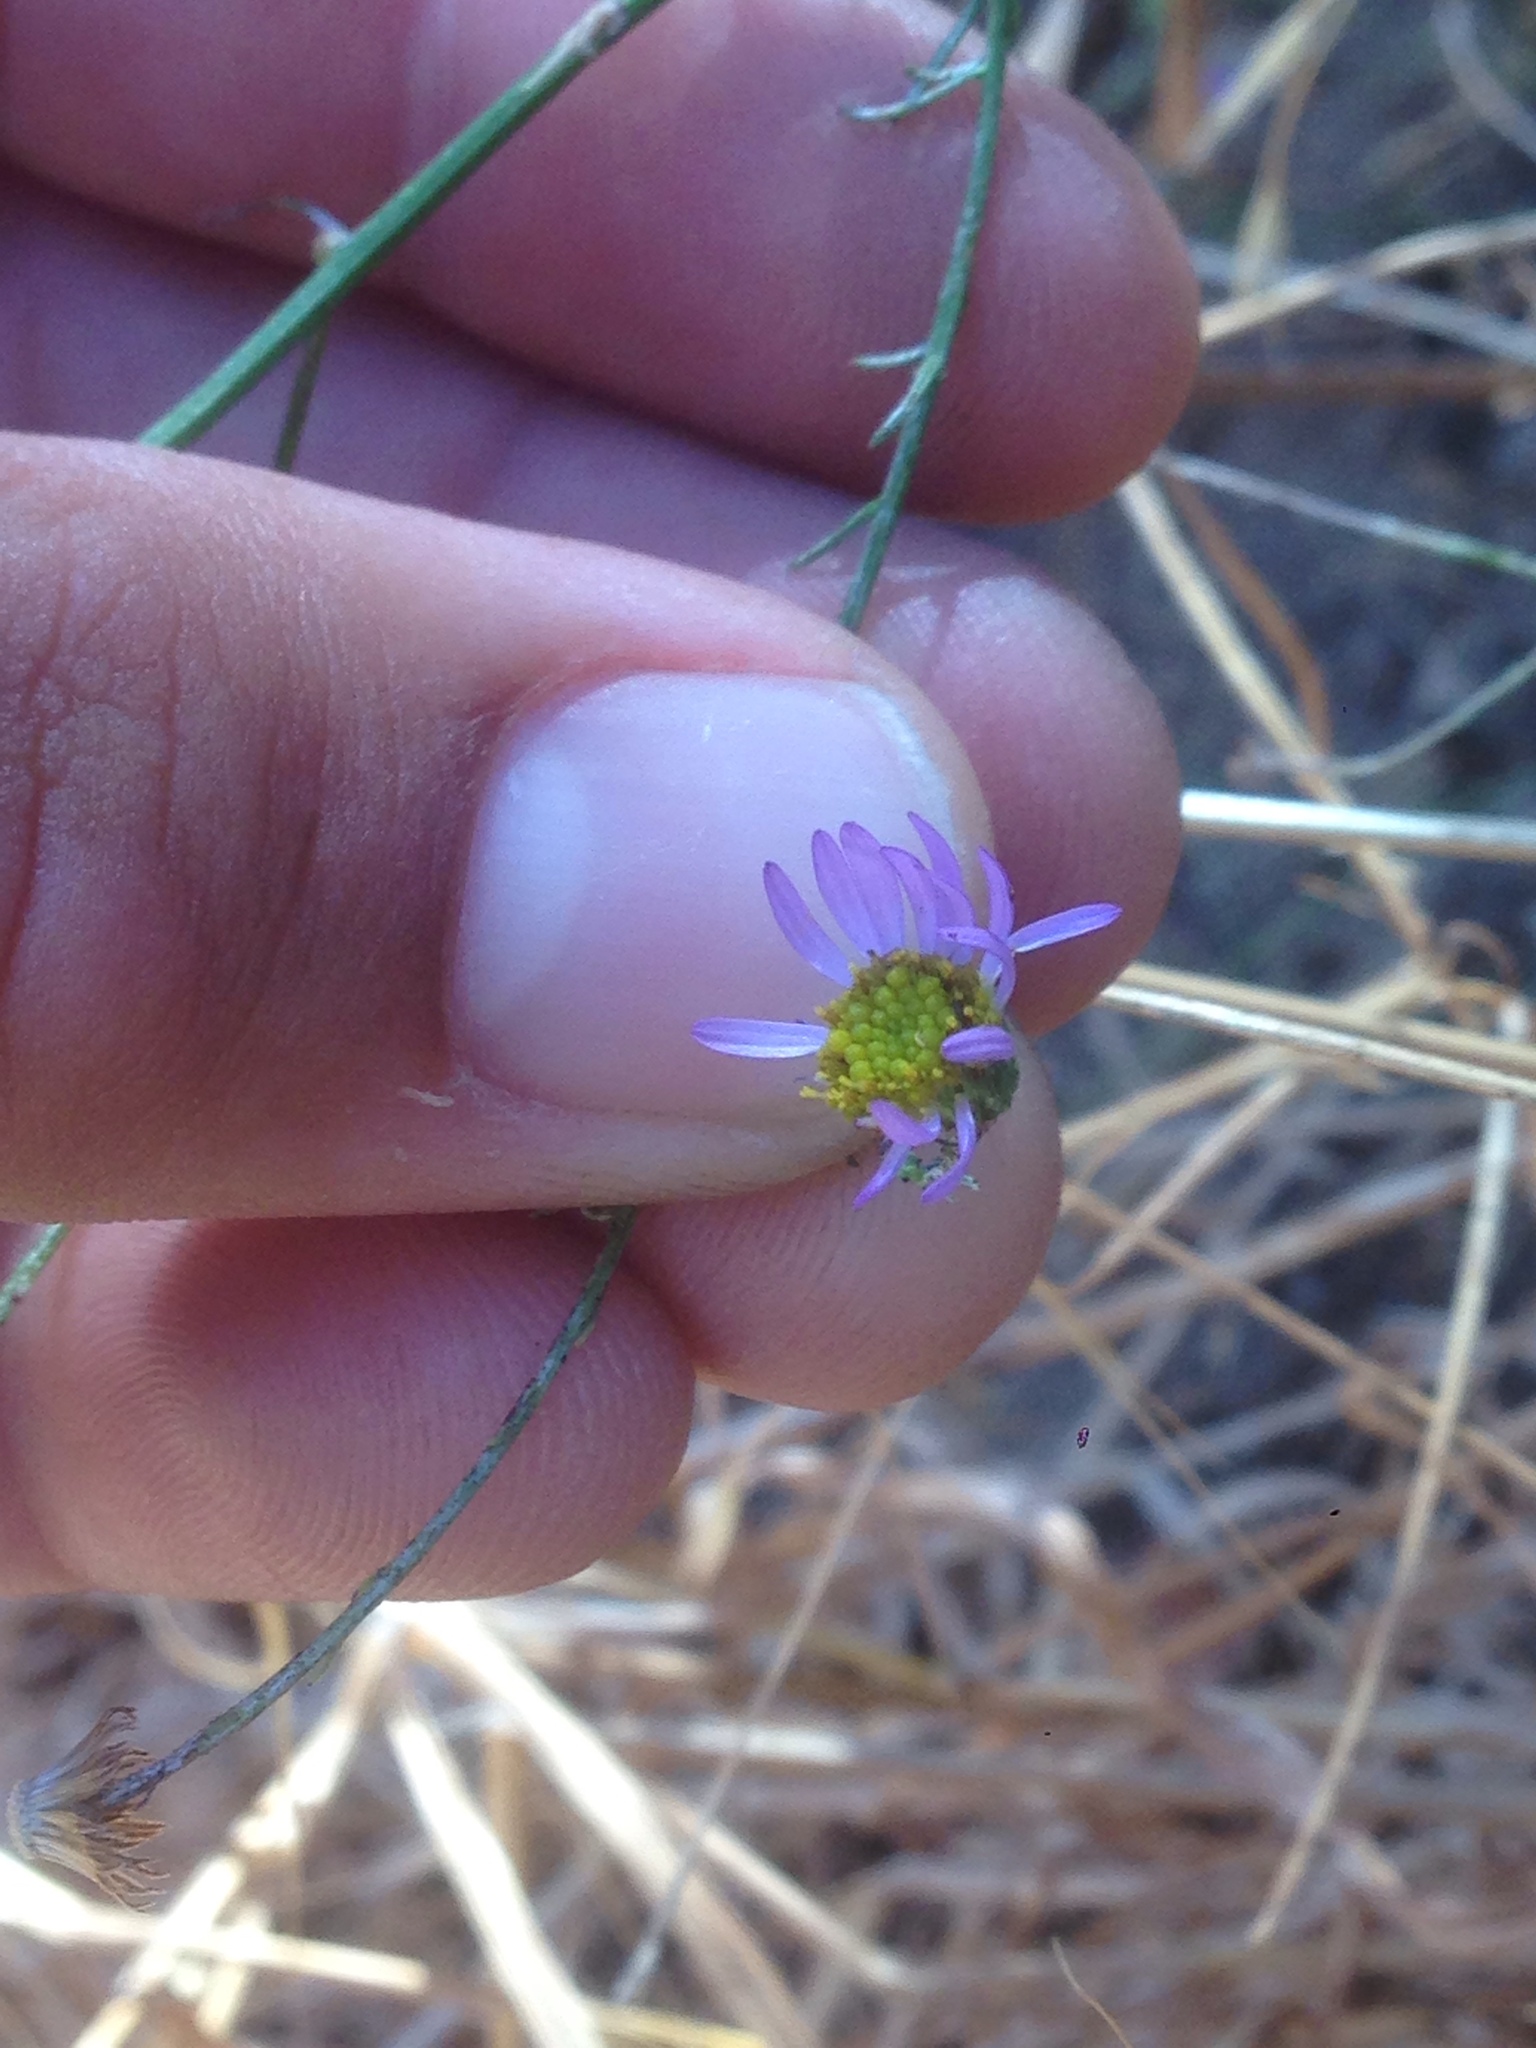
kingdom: Plantae
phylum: Tracheophyta
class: Magnoliopsida
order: Asterales
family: Asteraceae
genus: Erigeron
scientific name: Erigeron foliosus
